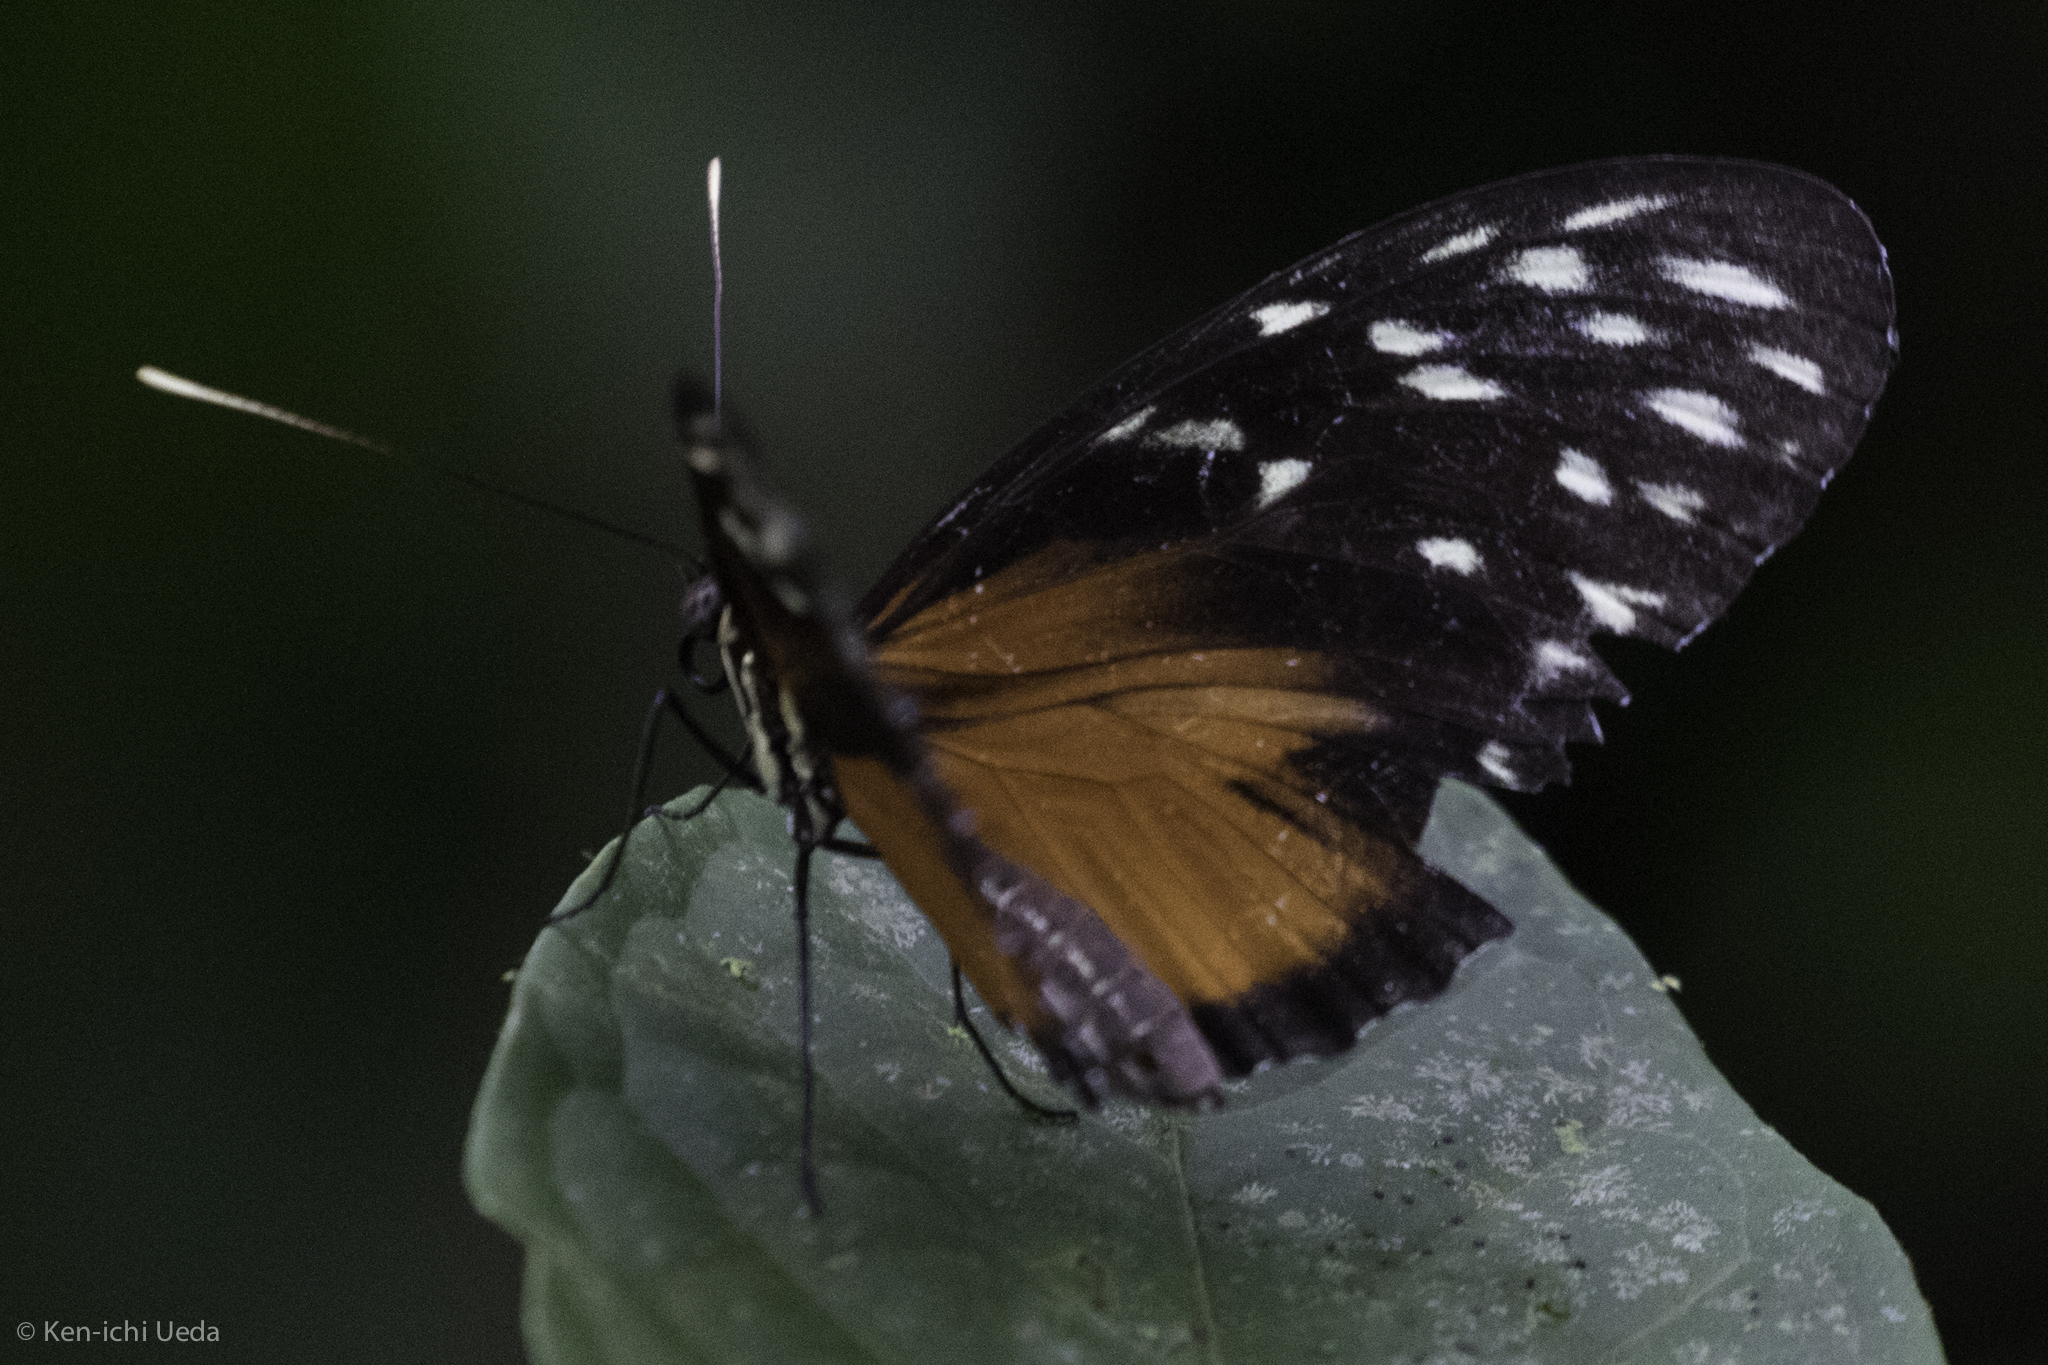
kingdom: Animalia
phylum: Arthropoda
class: Insecta
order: Lepidoptera
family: Nymphalidae
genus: Heliconius
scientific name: Heliconius hecale
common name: Tiger longwing
